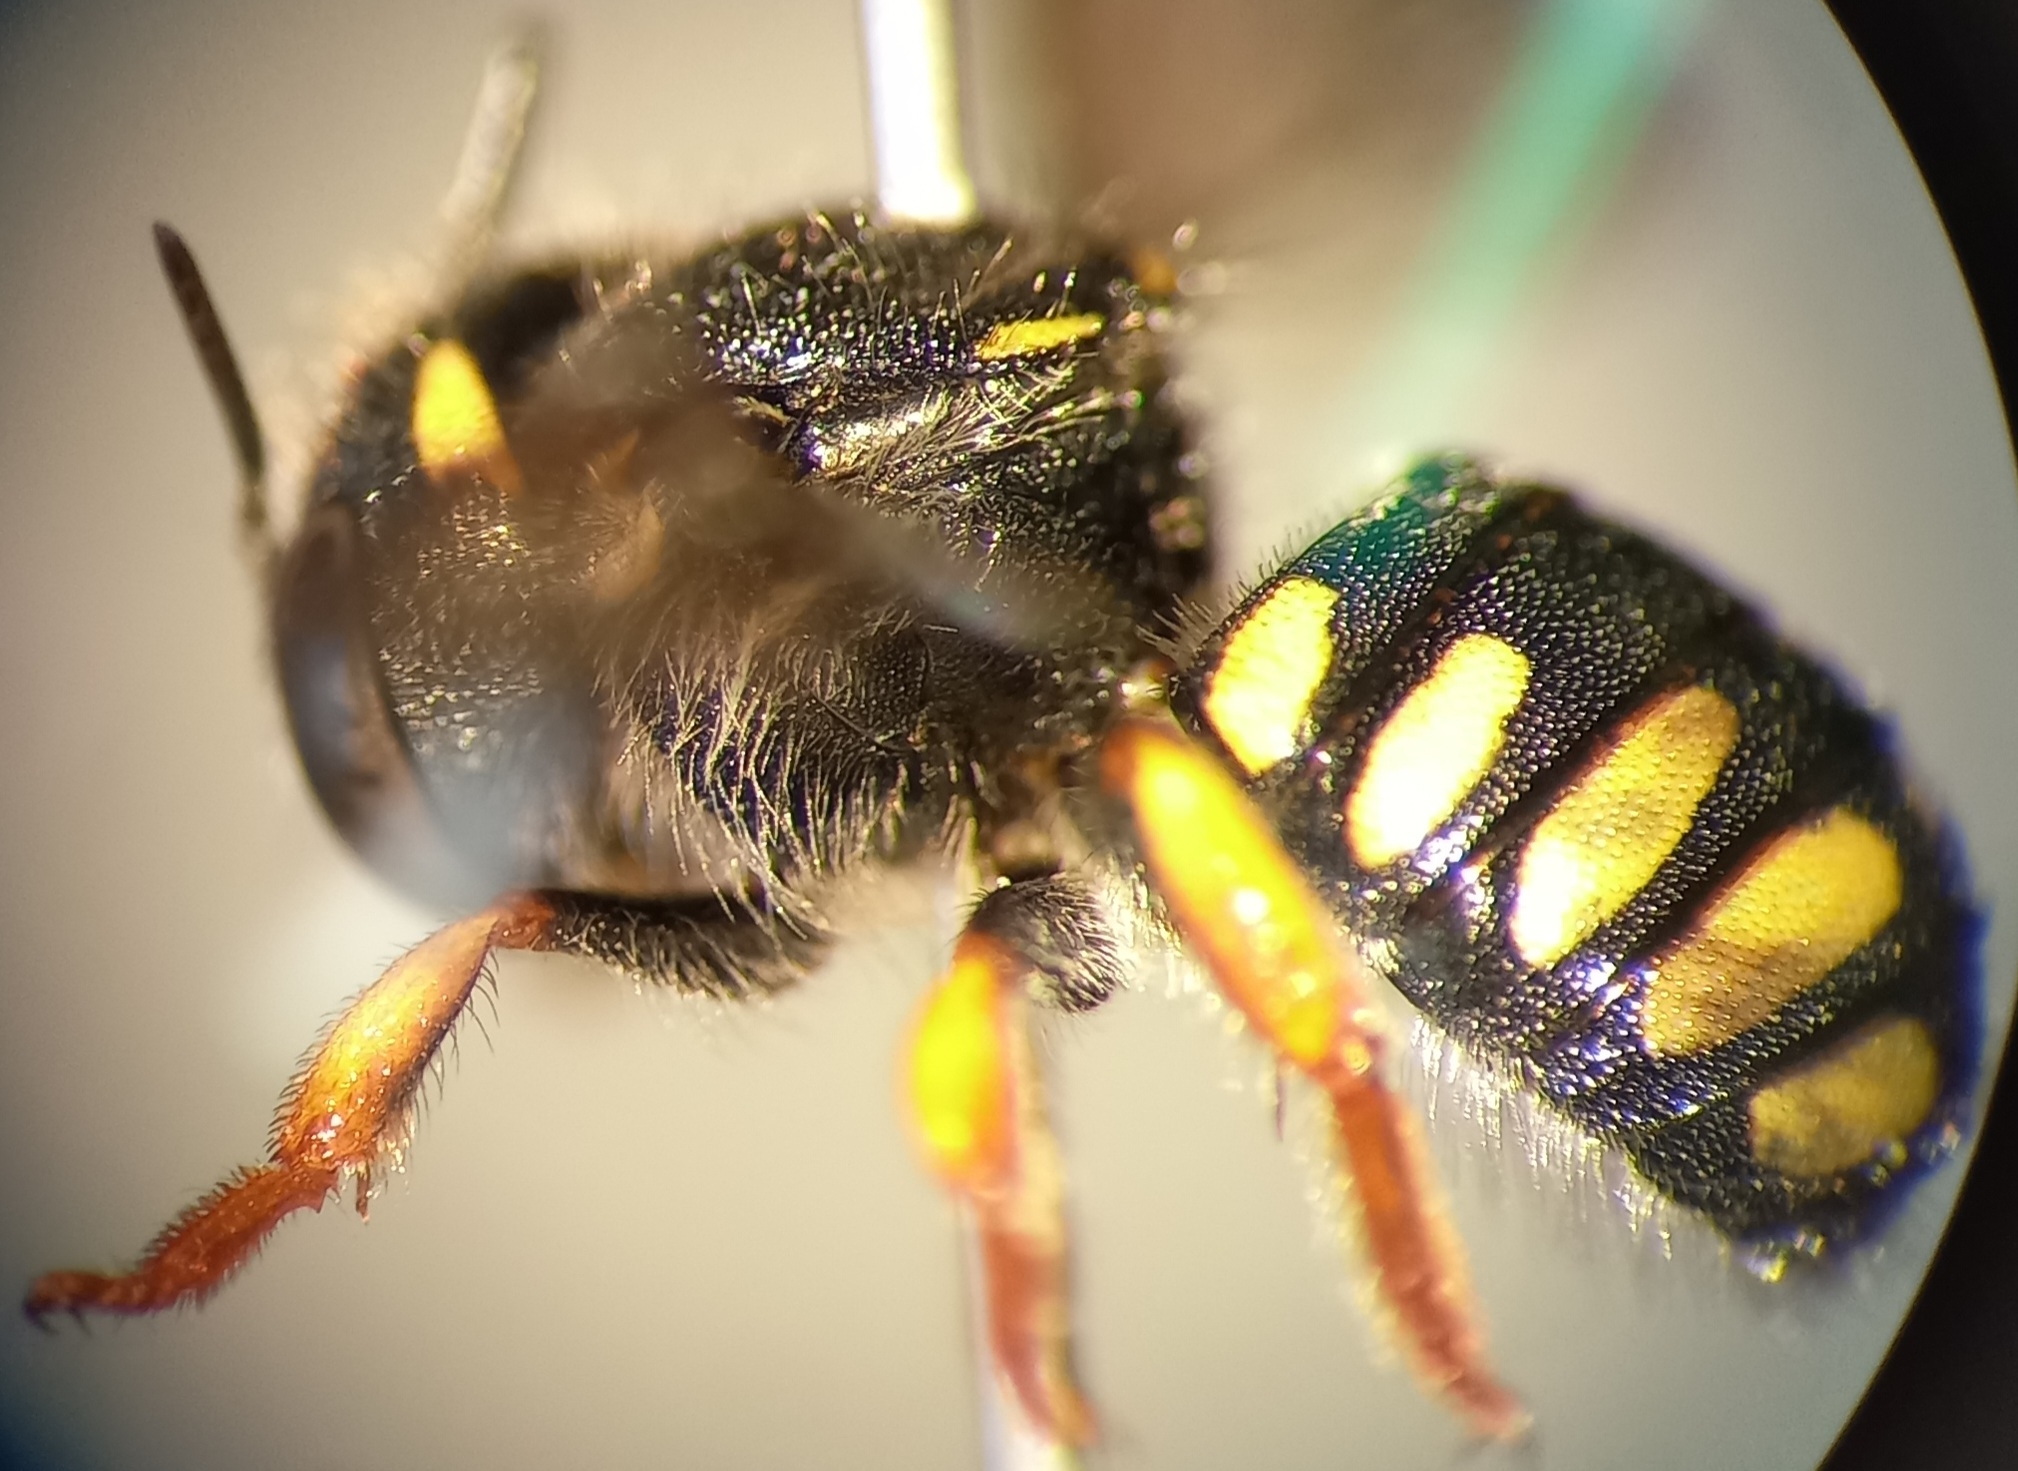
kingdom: Animalia
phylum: Arthropoda
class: Insecta
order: Hymenoptera
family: Megachilidae
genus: Pseudoanthidium
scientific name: Pseudoanthidium nanum
